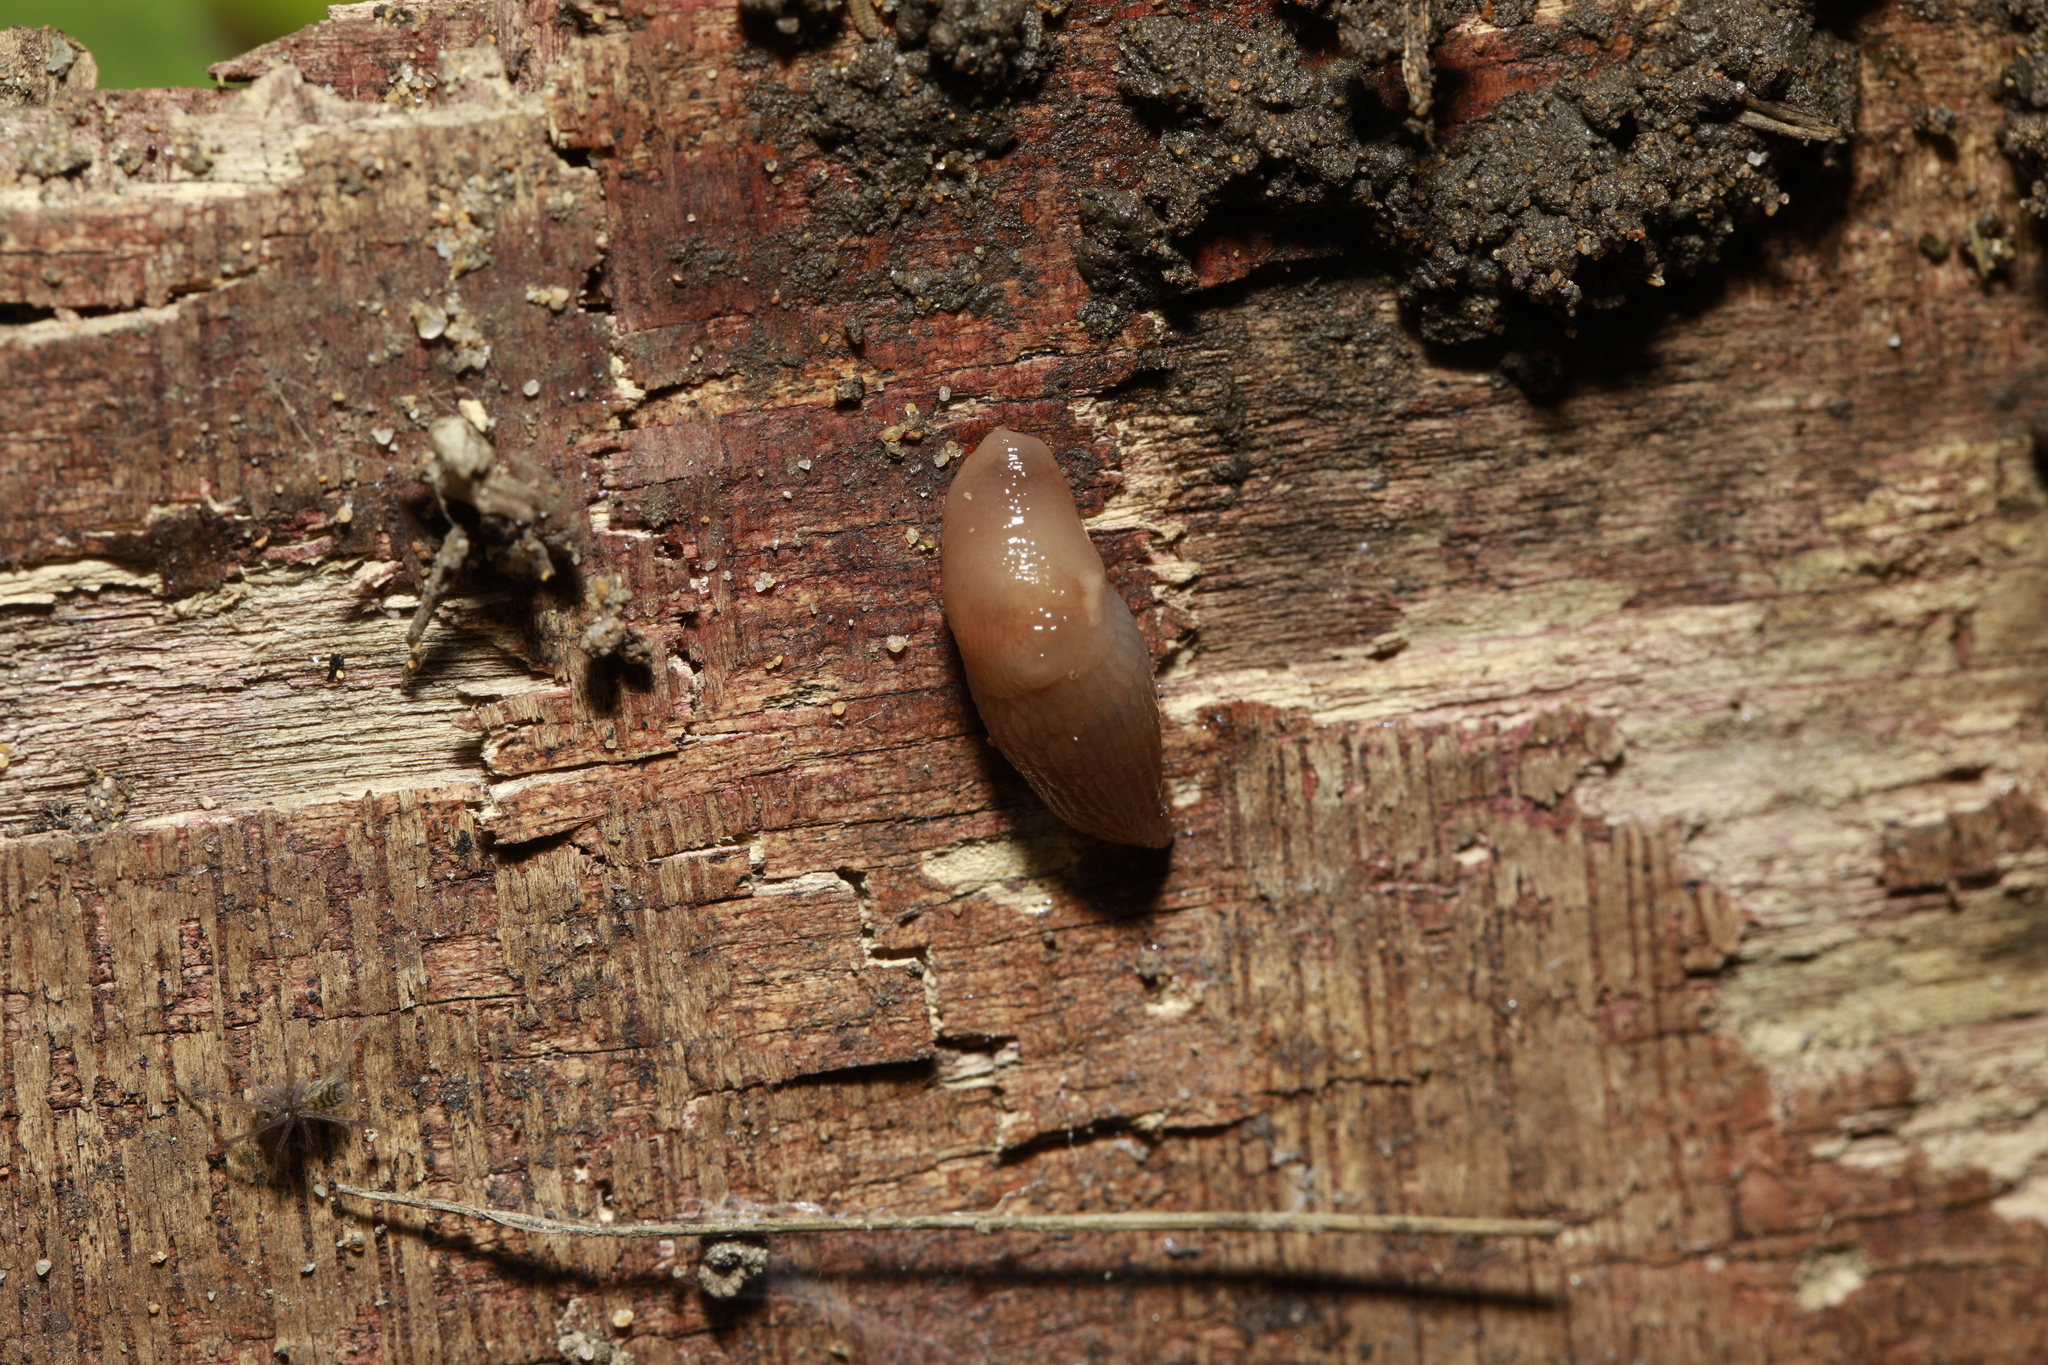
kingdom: Animalia
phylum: Mollusca
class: Gastropoda
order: Stylommatophora
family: Agriolimacidae
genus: Deroceras
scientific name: Deroceras reticulatum
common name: Gray field slug
